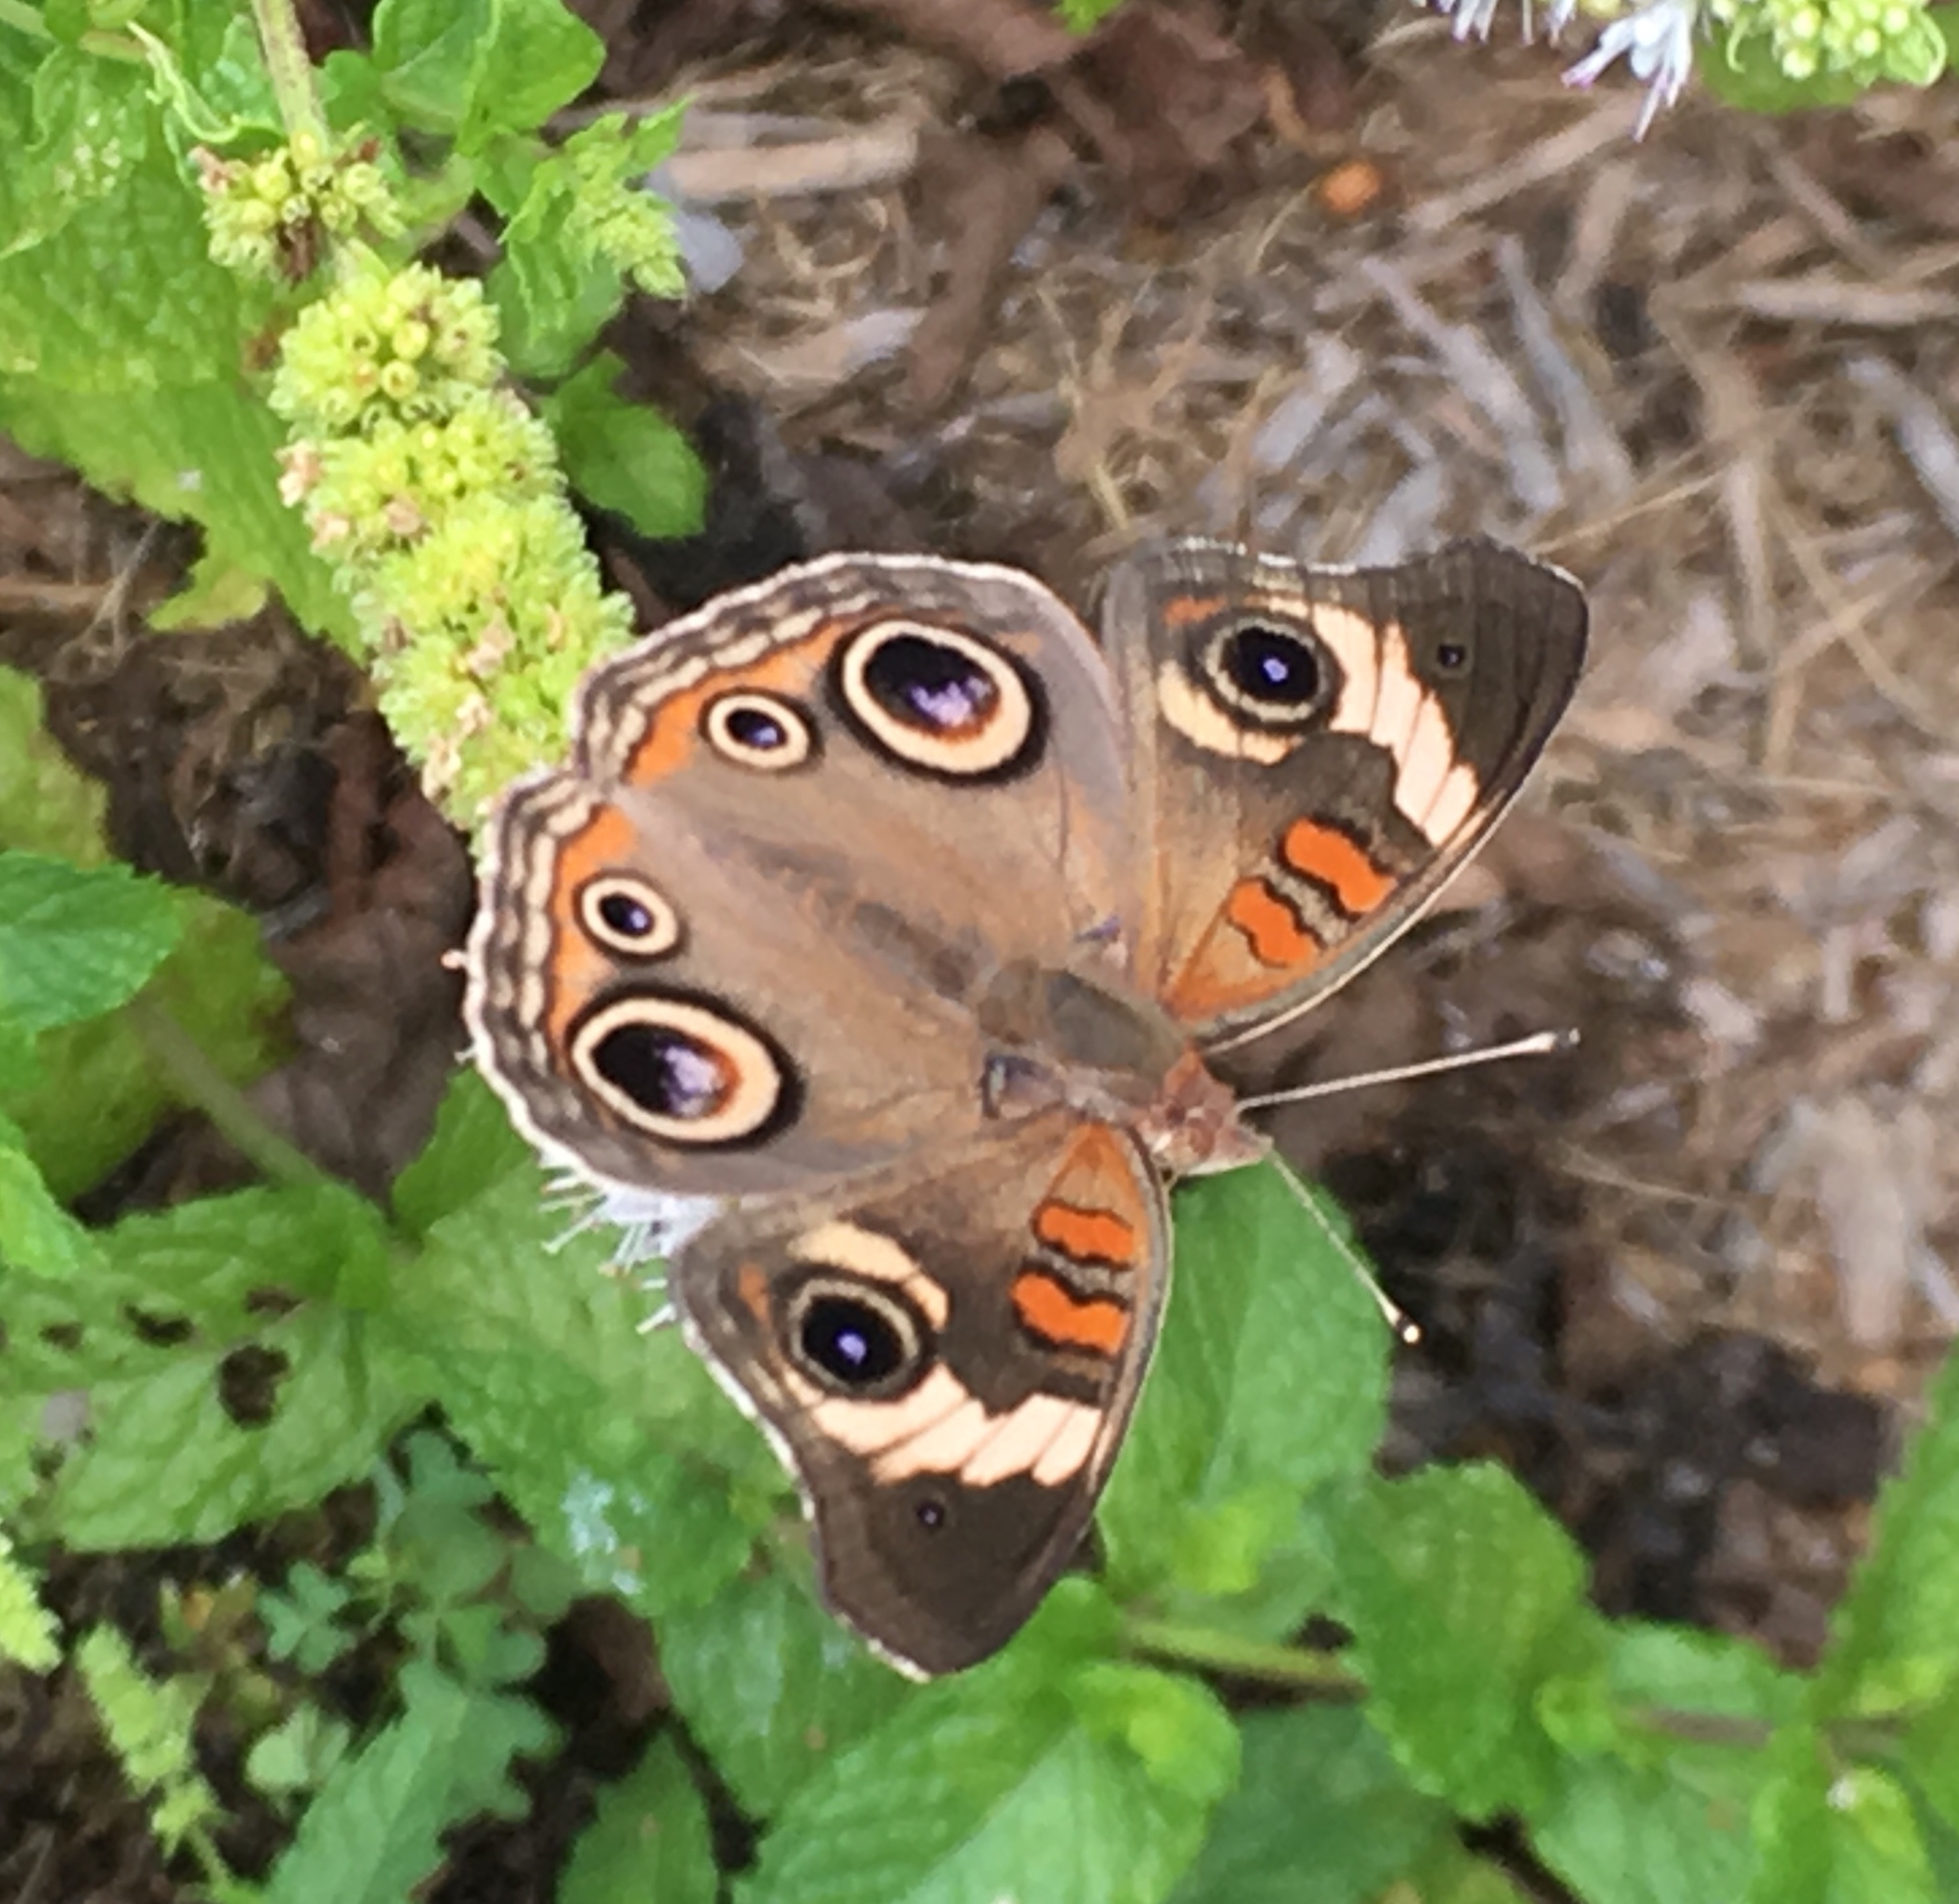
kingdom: Animalia
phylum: Arthropoda
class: Insecta
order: Lepidoptera
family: Nymphalidae
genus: Junonia
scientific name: Junonia coenia
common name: Common buckeye
